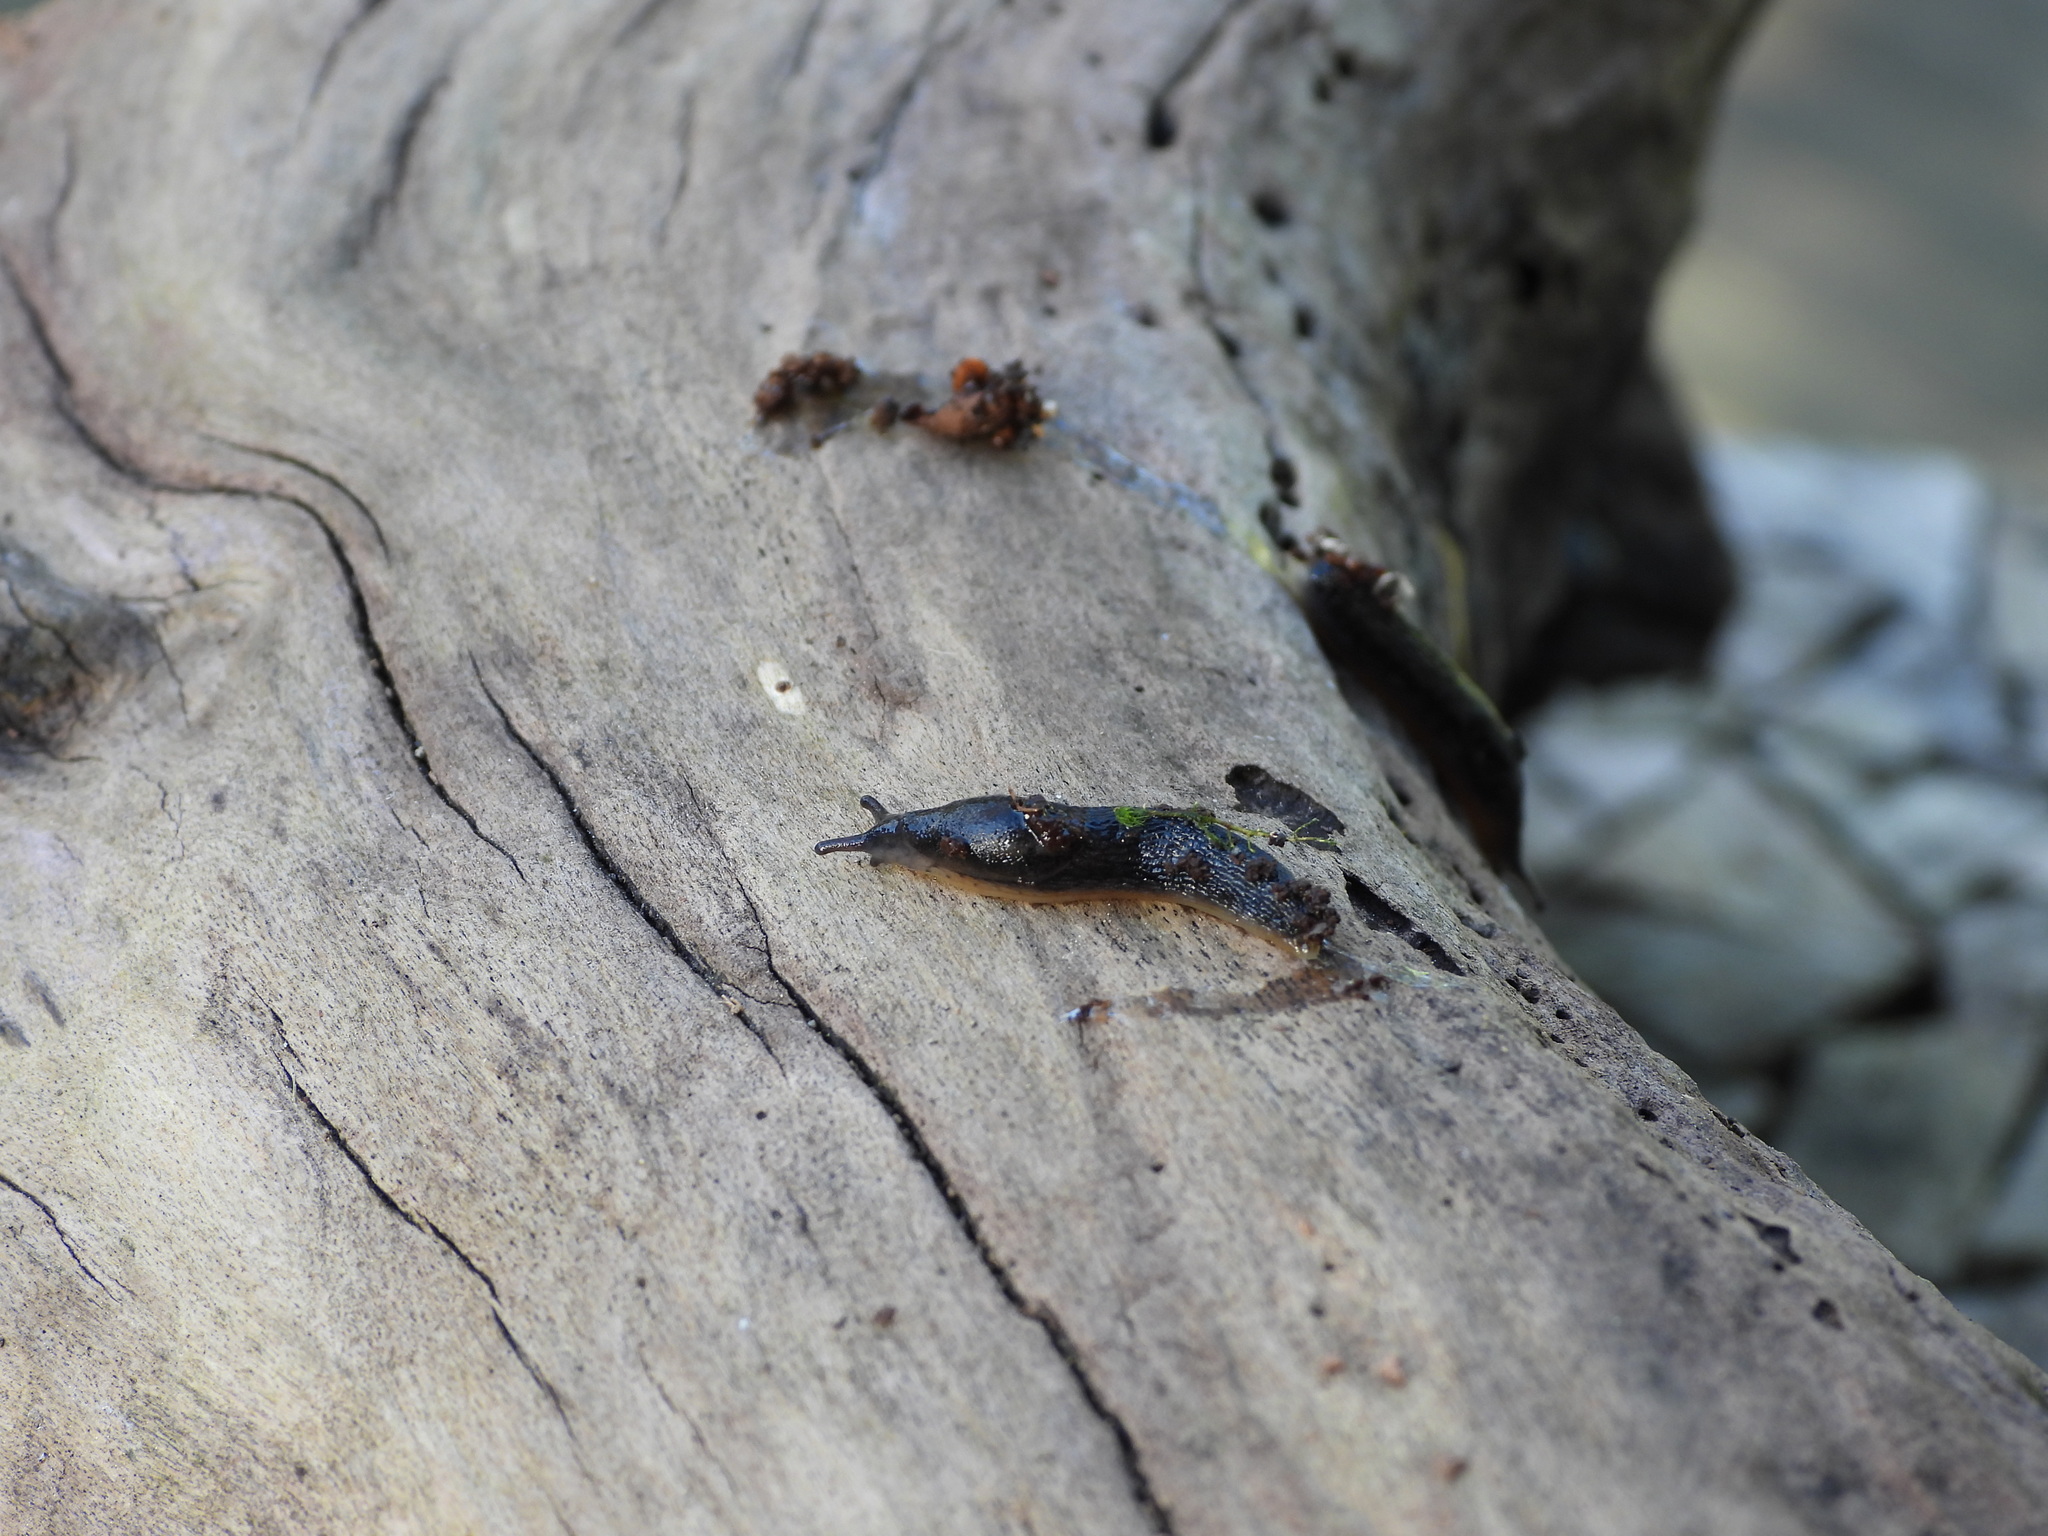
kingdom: Animalia
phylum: Mollusca
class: Gastropoda
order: Stylommatophora
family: Arionidae
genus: Kobeltia
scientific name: Kobeltia
